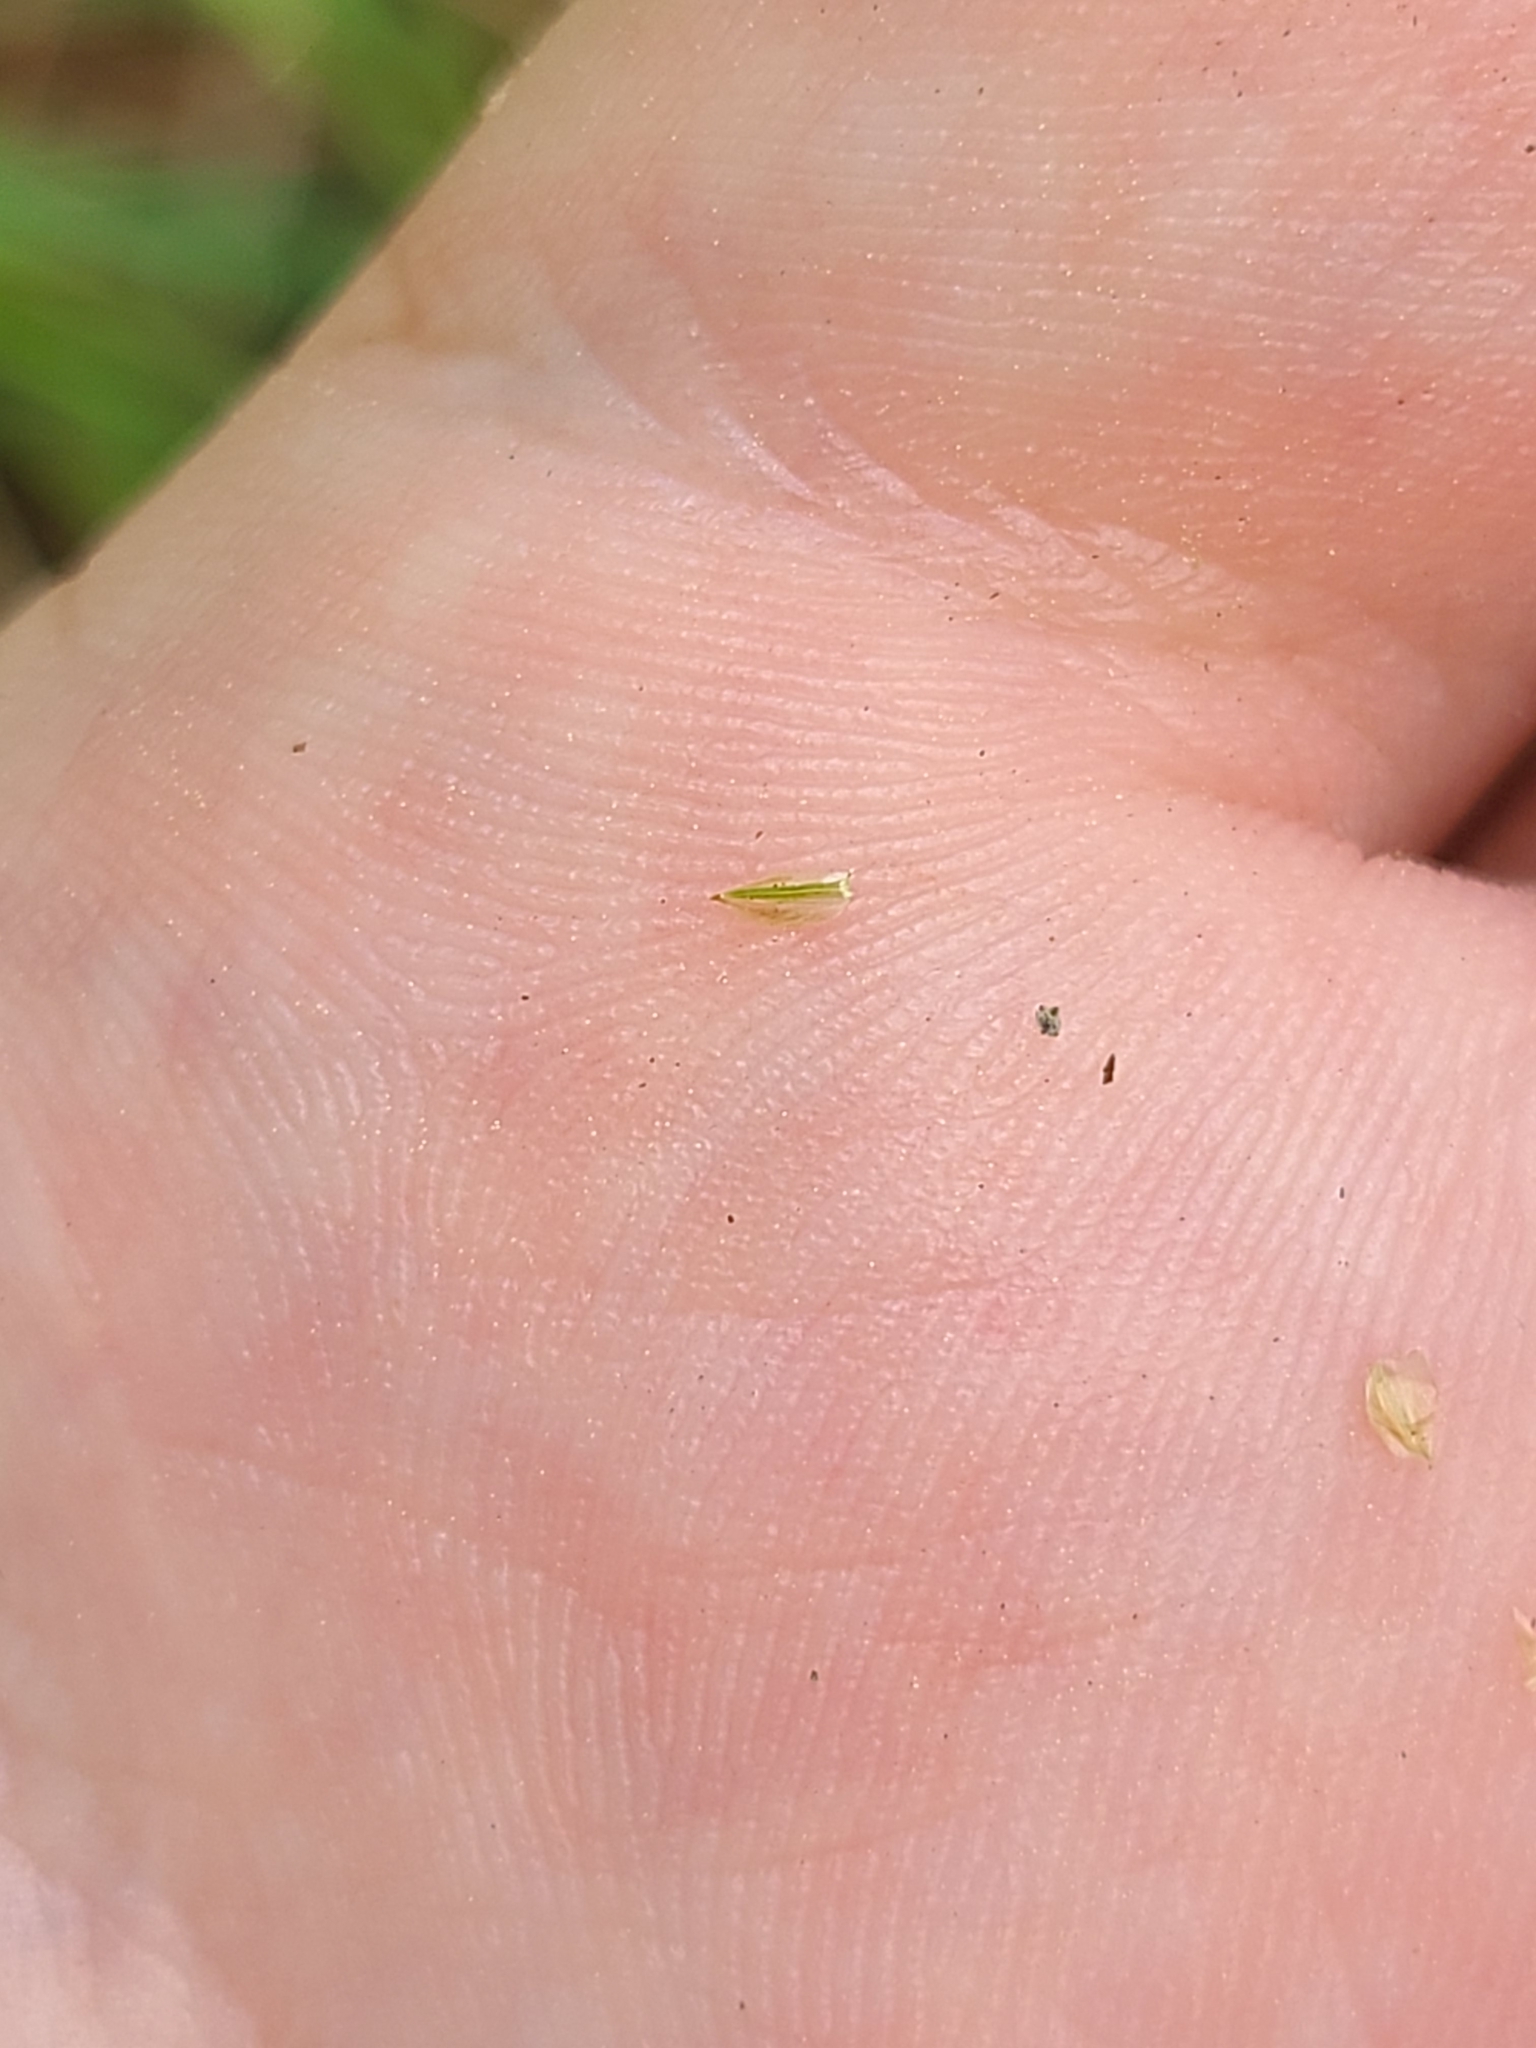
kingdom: Plantae
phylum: Tracheophyta
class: Liliopsida
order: Poales
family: Cyperaceae
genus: Carex
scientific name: Carex retroflexa
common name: Reflexed sedge
